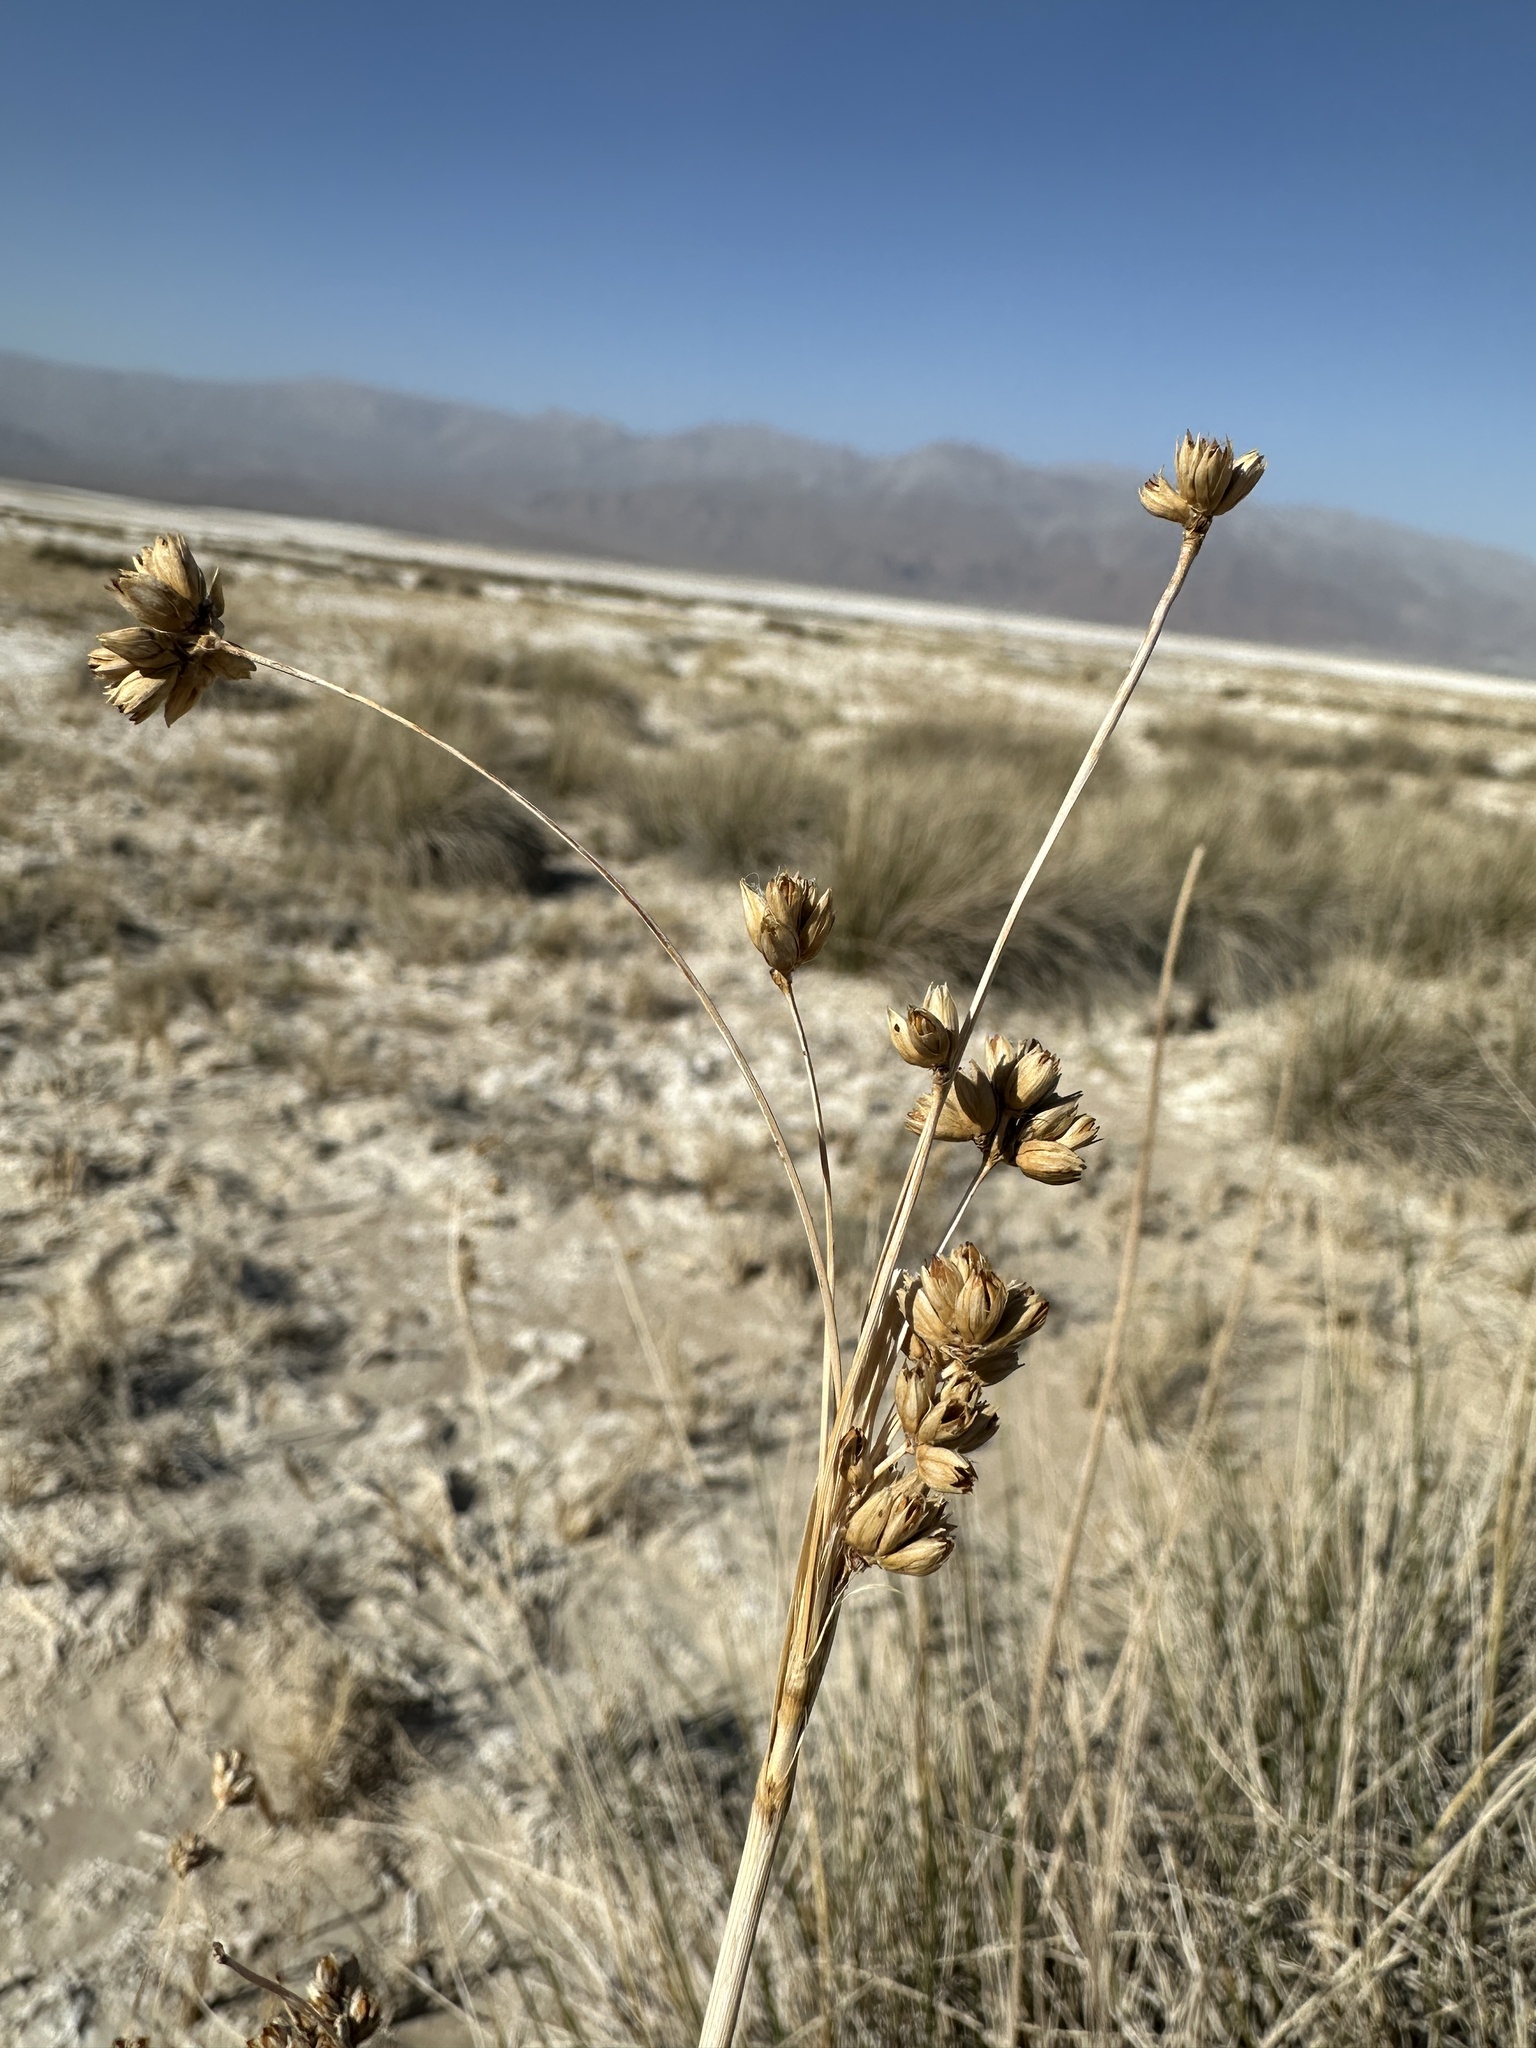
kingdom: Plantae
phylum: Tracheophyta
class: Liliopsida
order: Poales
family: Juncaceae
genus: Juncus
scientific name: Juncus cooperi
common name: Cooper's rush
